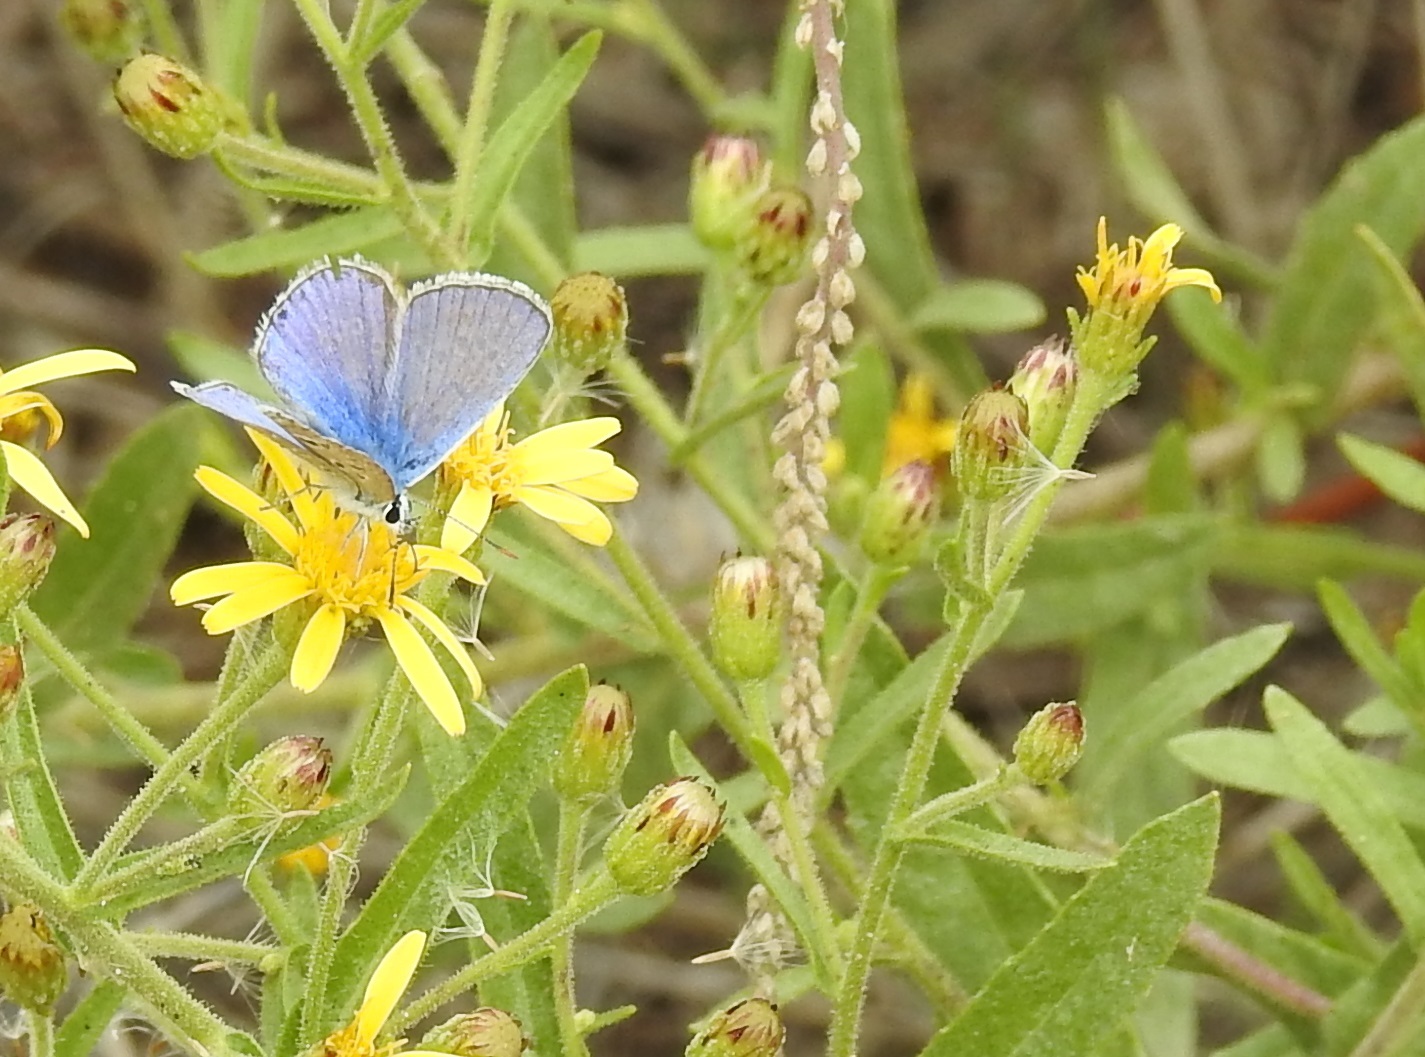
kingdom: Animalia
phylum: Arthropoda
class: Insecta
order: Lepidoptera
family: Lycaenidae
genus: Polyommatus
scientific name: Polyommatus celina
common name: Austaut's blue
